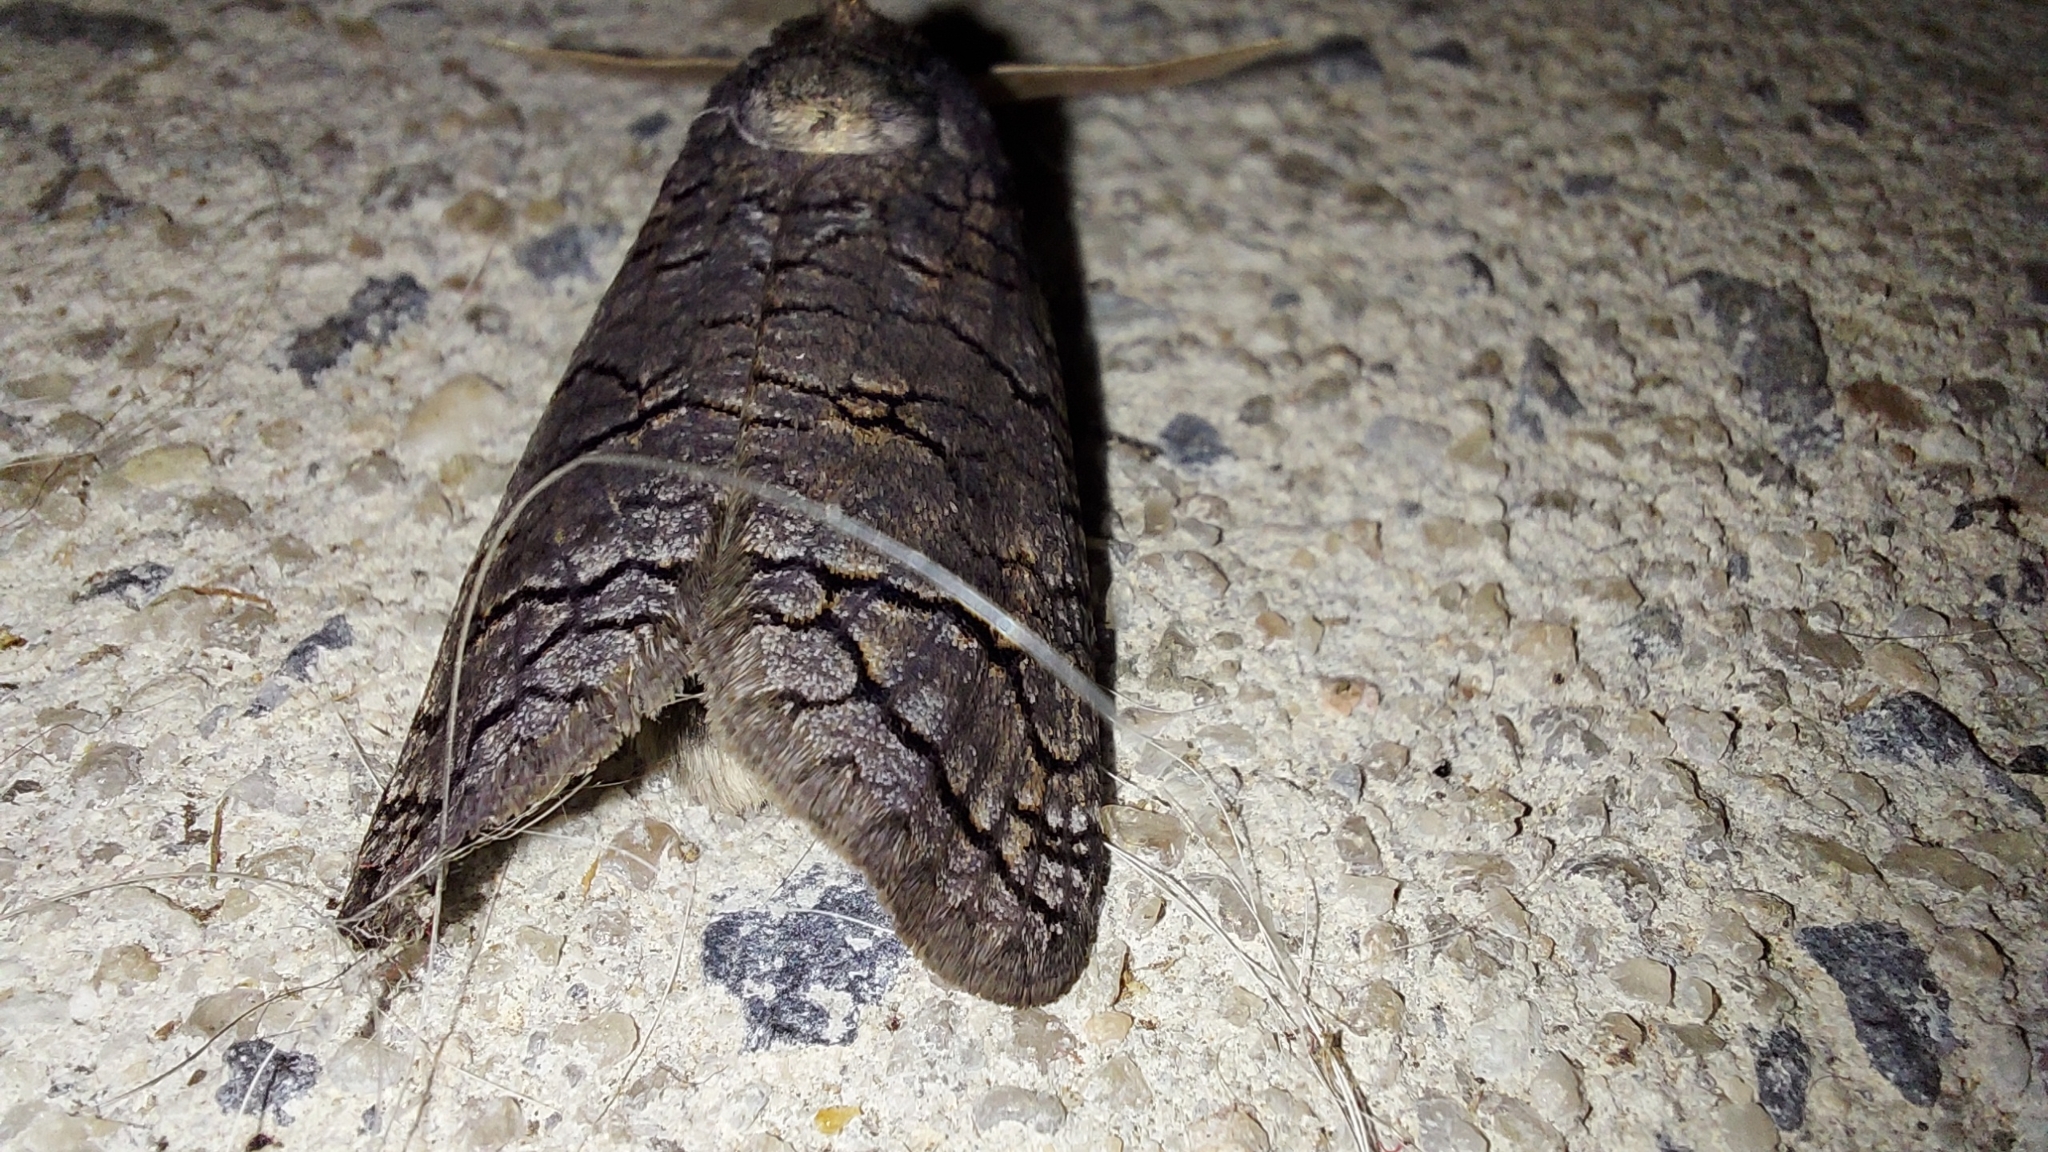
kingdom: Animalia
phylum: Arthropoda
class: Insecta
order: Lepidoptera
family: Cossidae
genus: Zyganisus
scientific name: Zyganisus caliginosus
